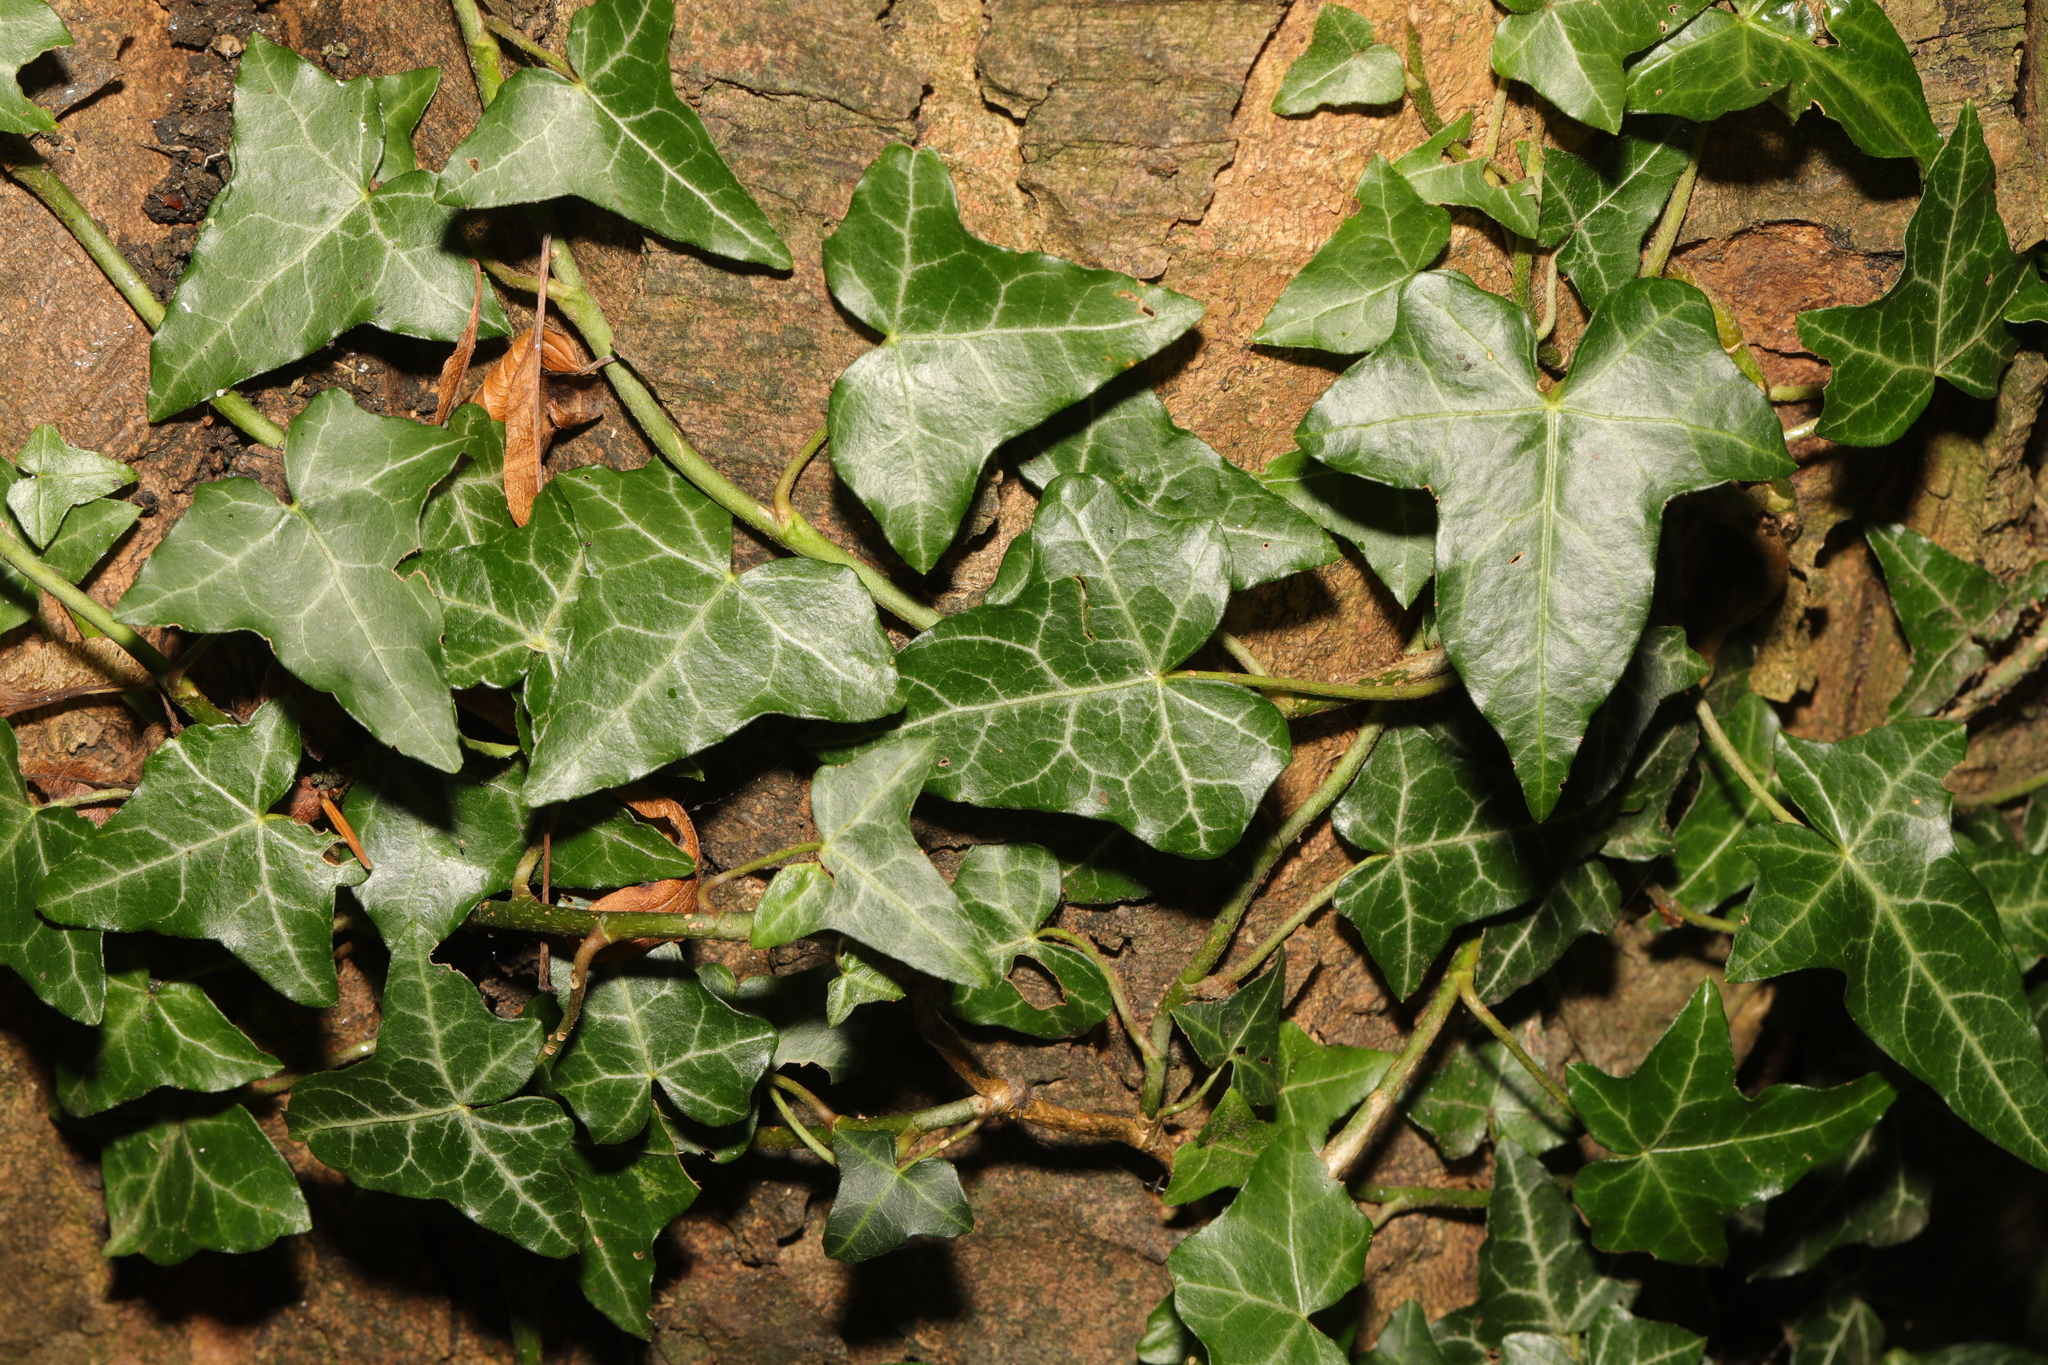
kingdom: Plantae
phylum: Tracheophyta
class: Magnoliopsida
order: Apiales
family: Araliaceae
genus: Hedera
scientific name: Hedera helix
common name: Ivy
